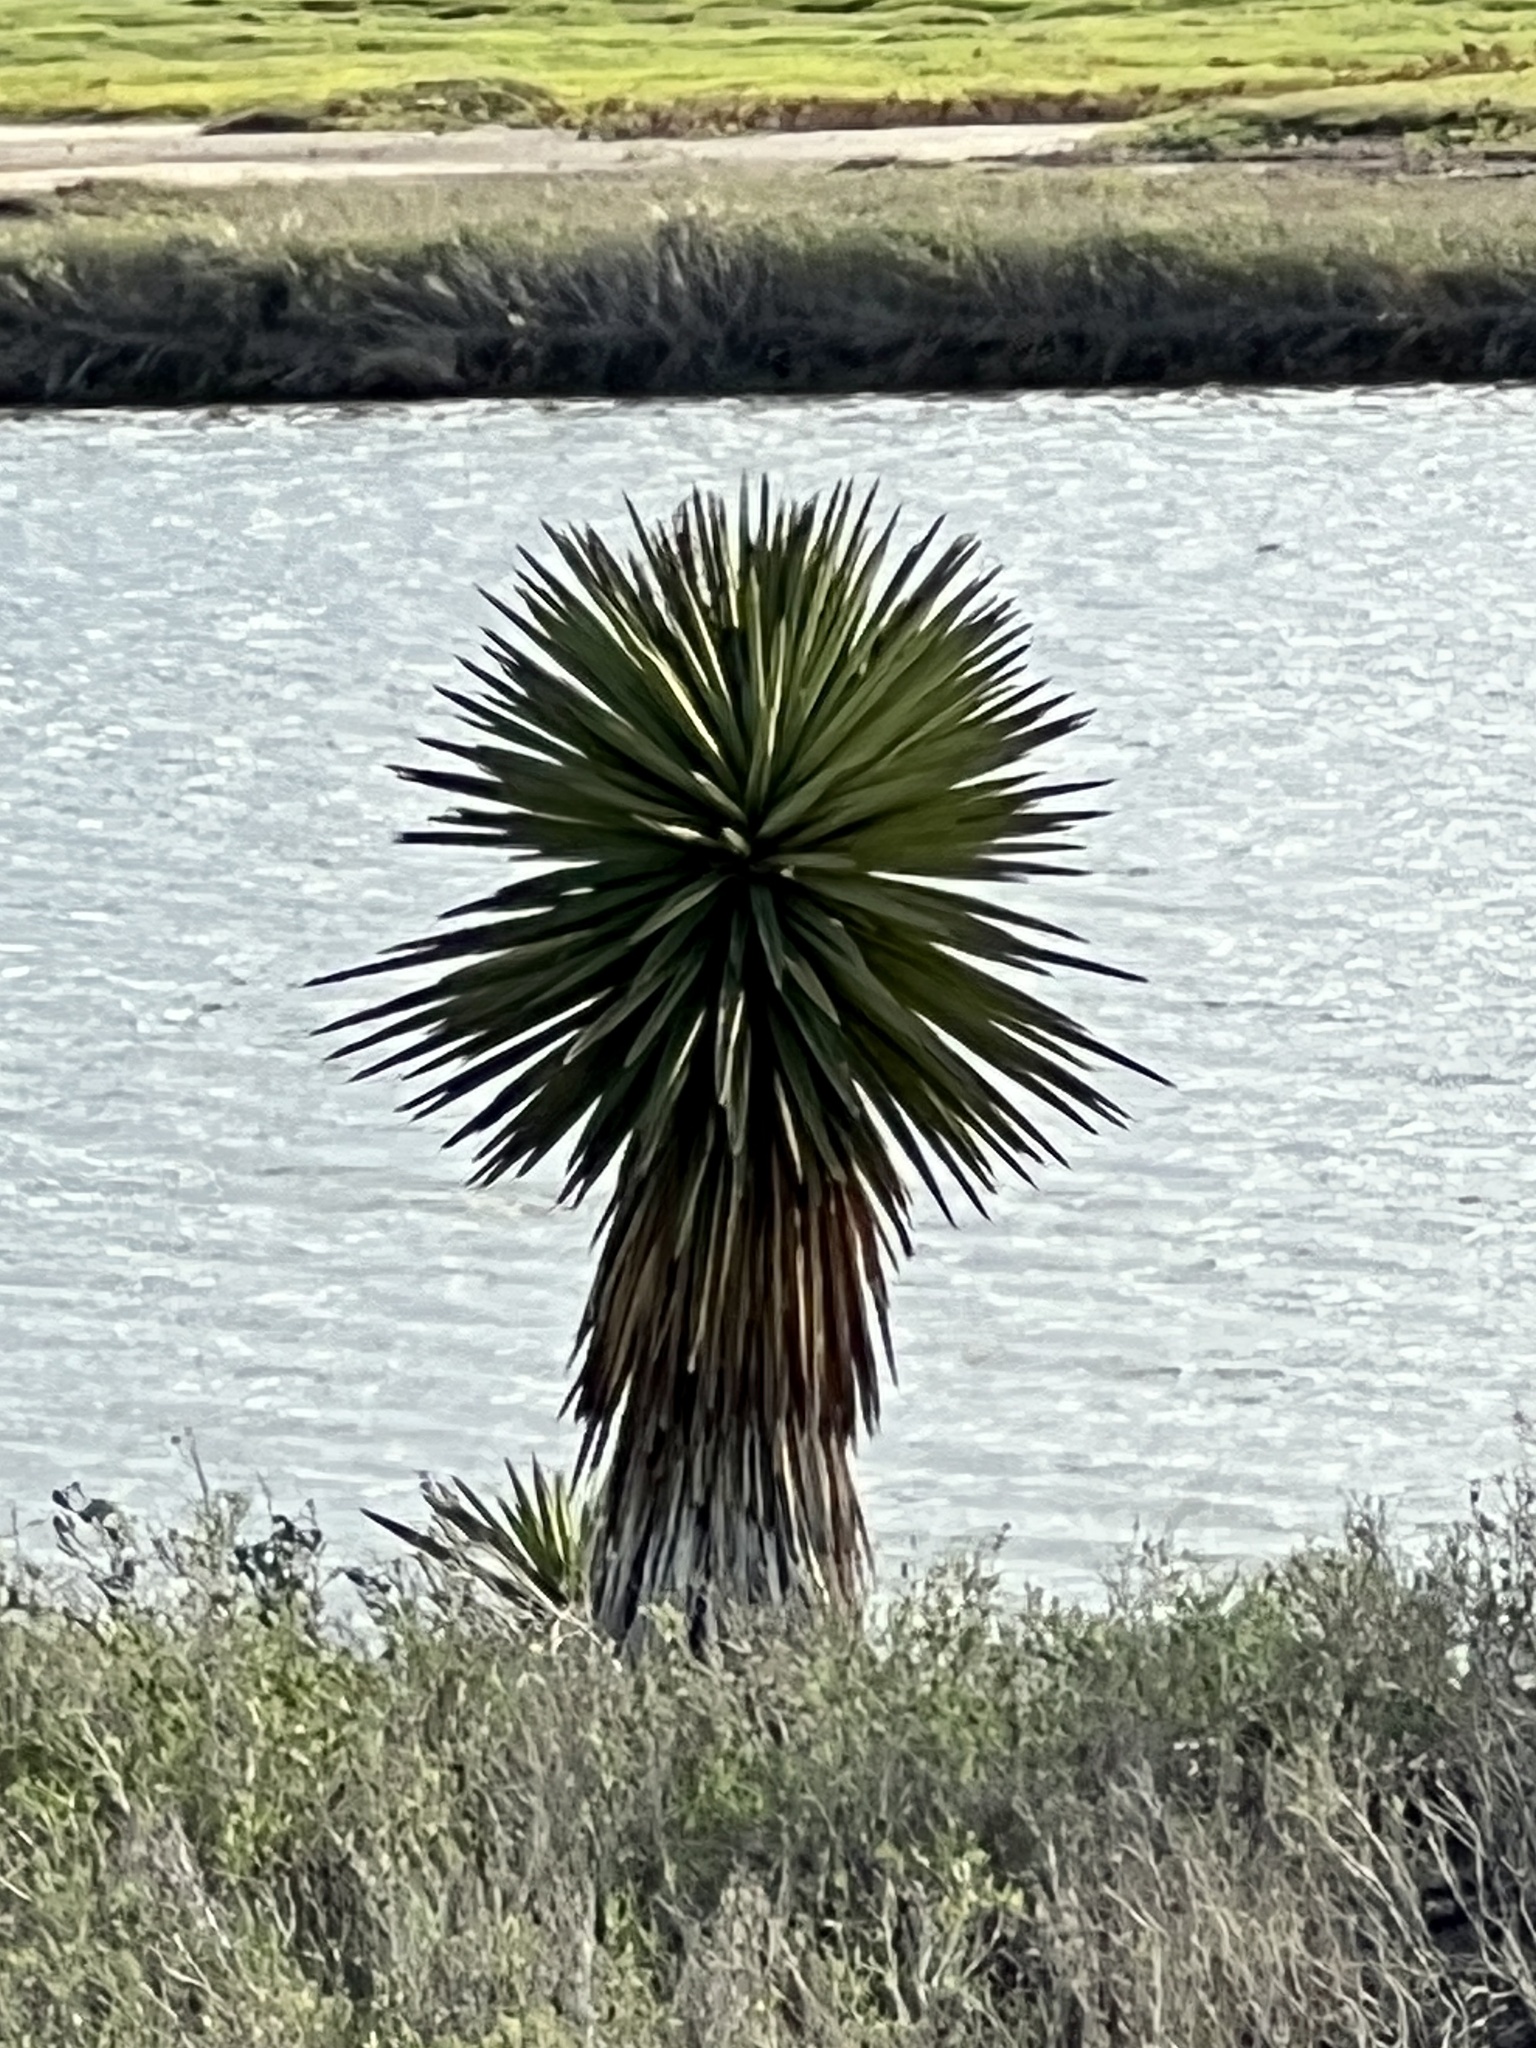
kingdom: Plantae
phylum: Tracheophyta
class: Liliopsida
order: Asparagales
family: Asparagaceae
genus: Yucca
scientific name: Yucca treculiana
